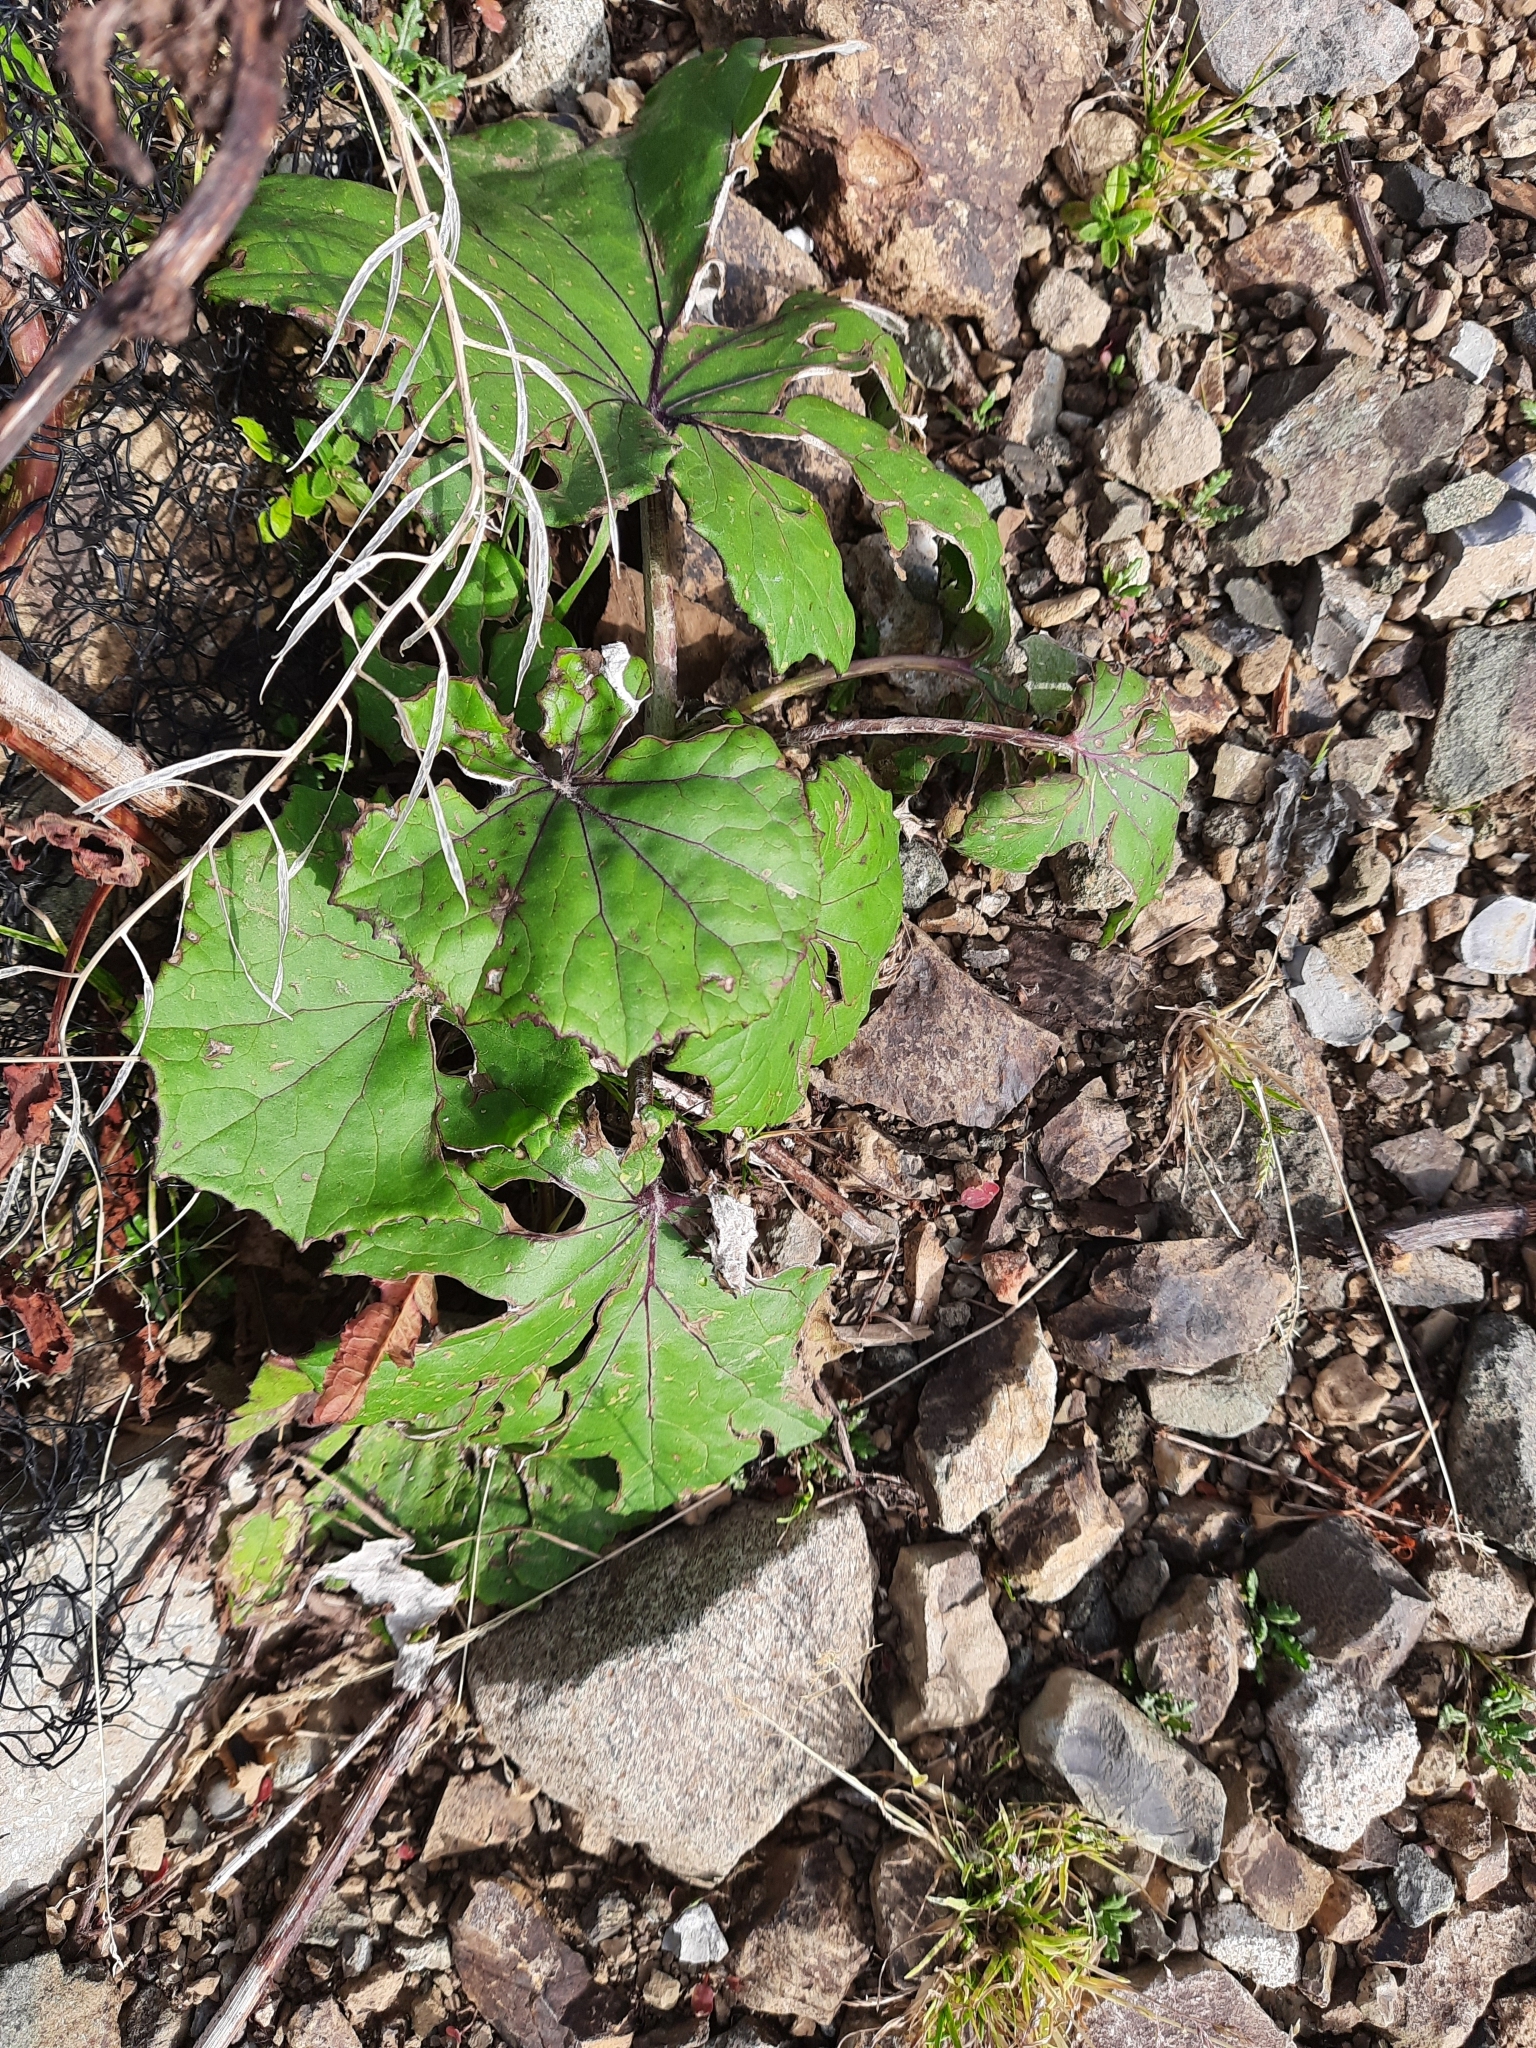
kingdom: Plantae
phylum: Tracheophyta
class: Magnoliopsida
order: Asterales
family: Asteraceae
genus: Tussilago
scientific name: Tussilago farfara
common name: Coltsfoot
